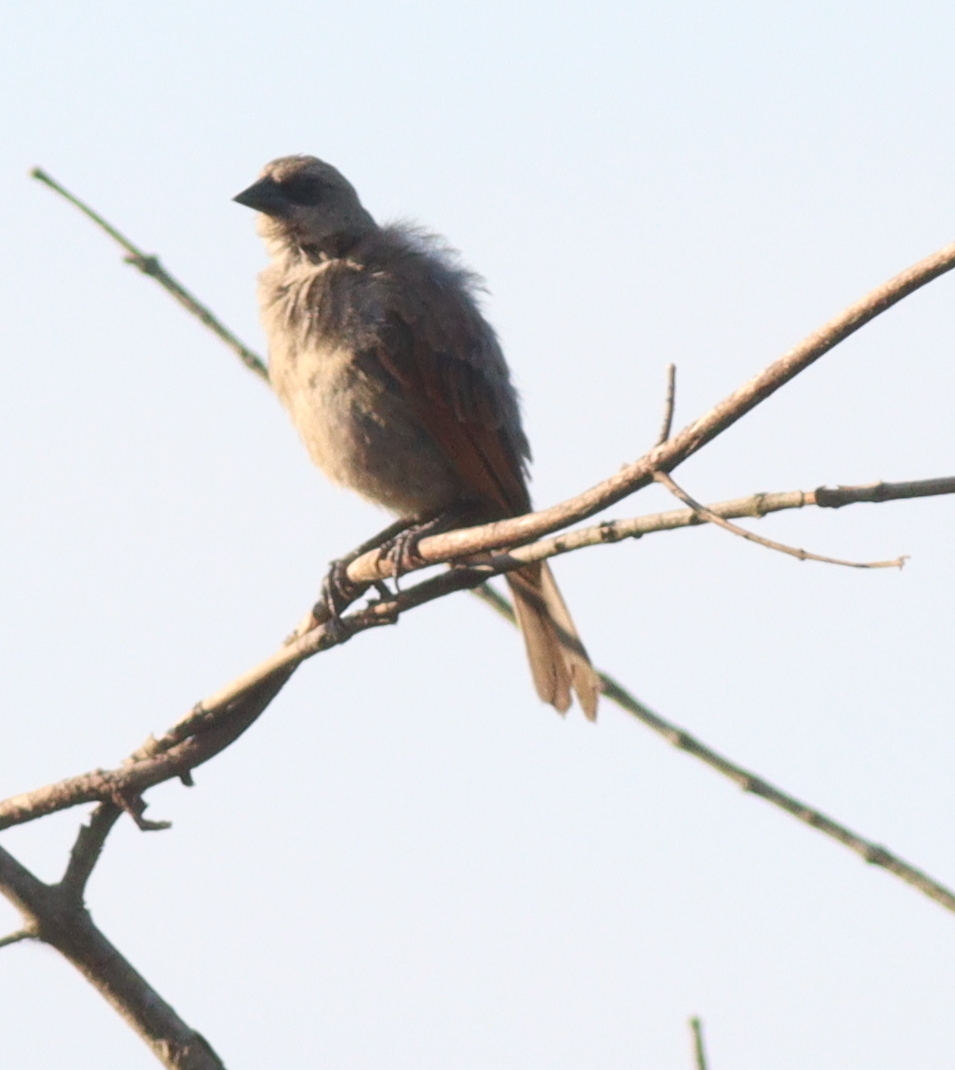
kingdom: Animalia
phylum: Chordata
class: Aves
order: Passeriformes
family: Icteridae
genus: Agelaioides
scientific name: Agelaioides badius
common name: Baywing
